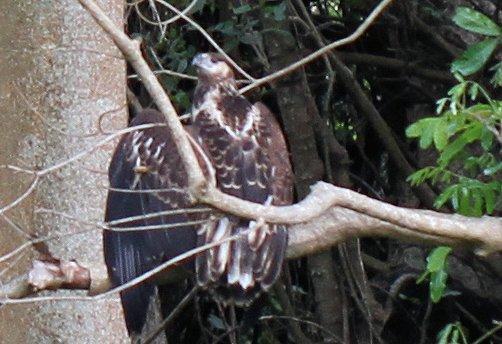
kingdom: Animalia
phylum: Chordata
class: Aves
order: Accipitriformes
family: Accipitridae
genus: Haliaeetus
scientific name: Haliaeetus vocifer
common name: African fish eagle
